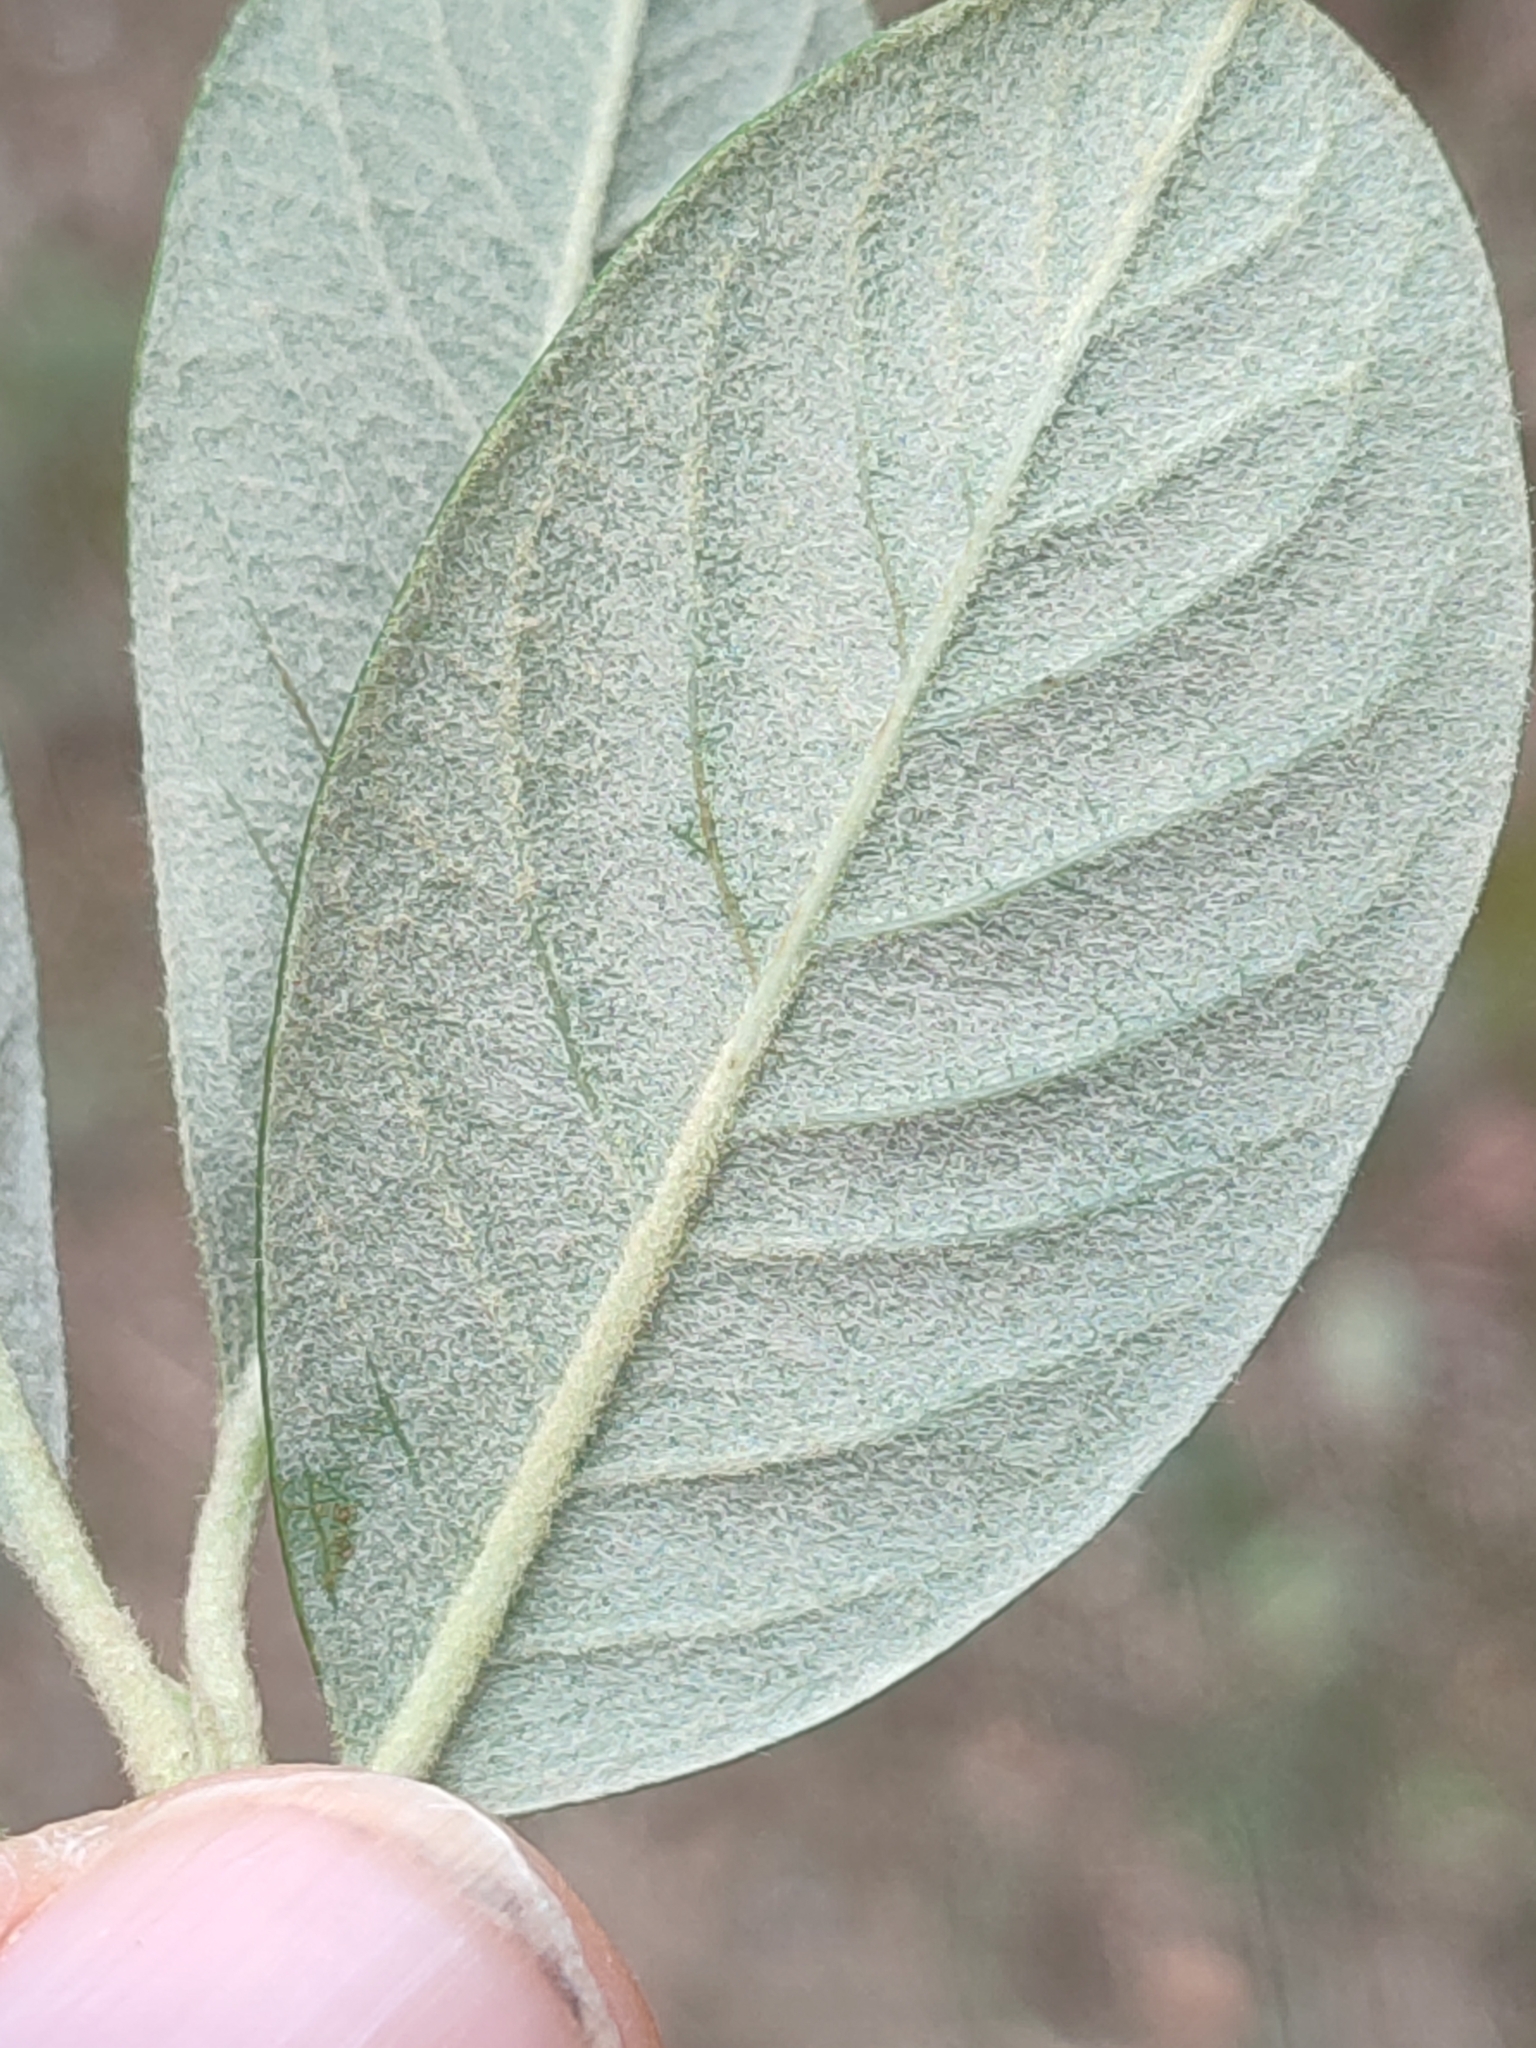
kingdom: Plantae
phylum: Tracheophyta
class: Magnoliopsida
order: Rosales
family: Rosaceae
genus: Cotoneaster
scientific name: Cotoneaster coriaceus
